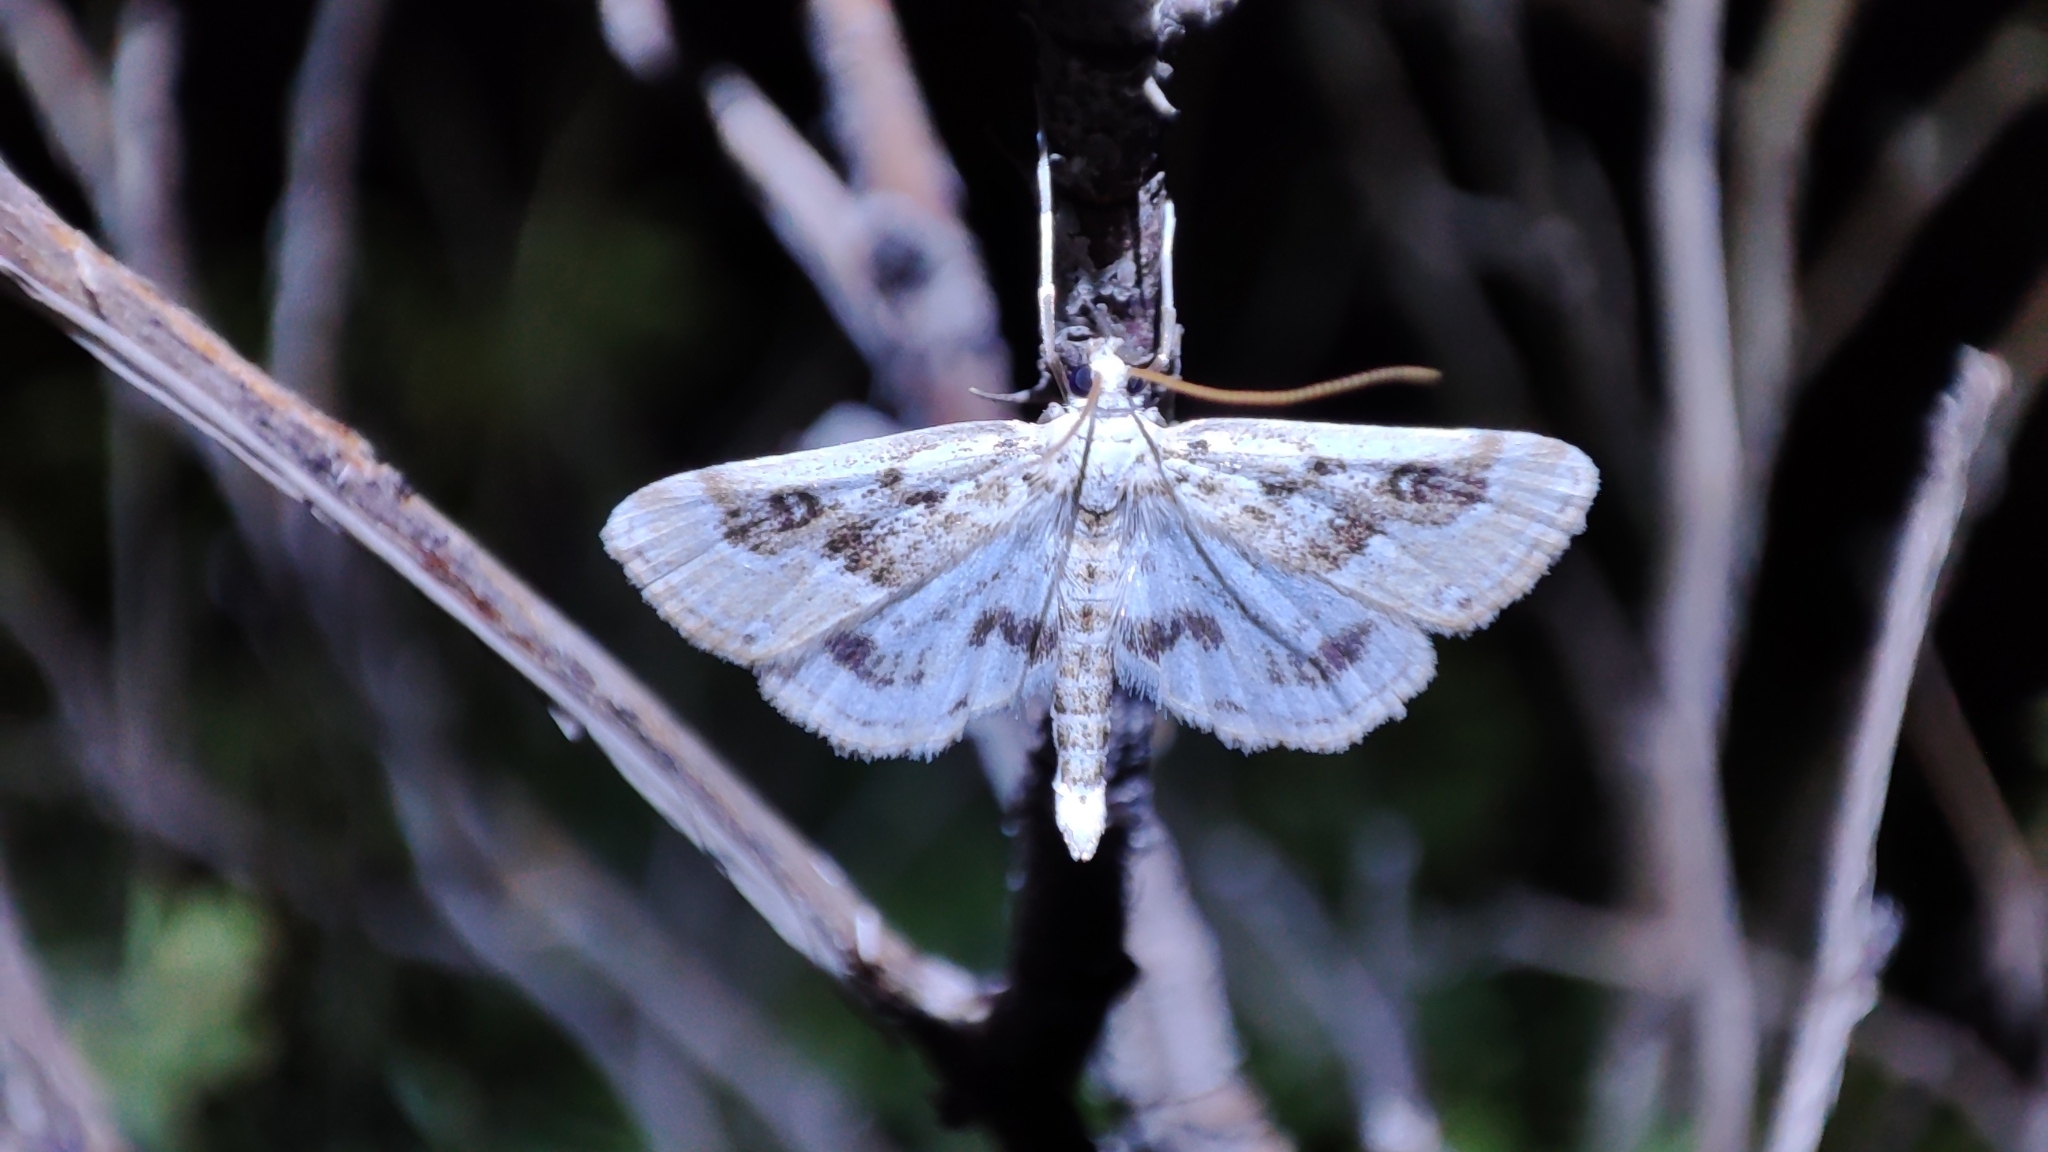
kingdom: Animalia
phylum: Arthropoda
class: Insecta
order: Lepidoptera
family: Crambidae
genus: Parapoynx
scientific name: Parapoynx stratiotata
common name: Ringed china-mark
